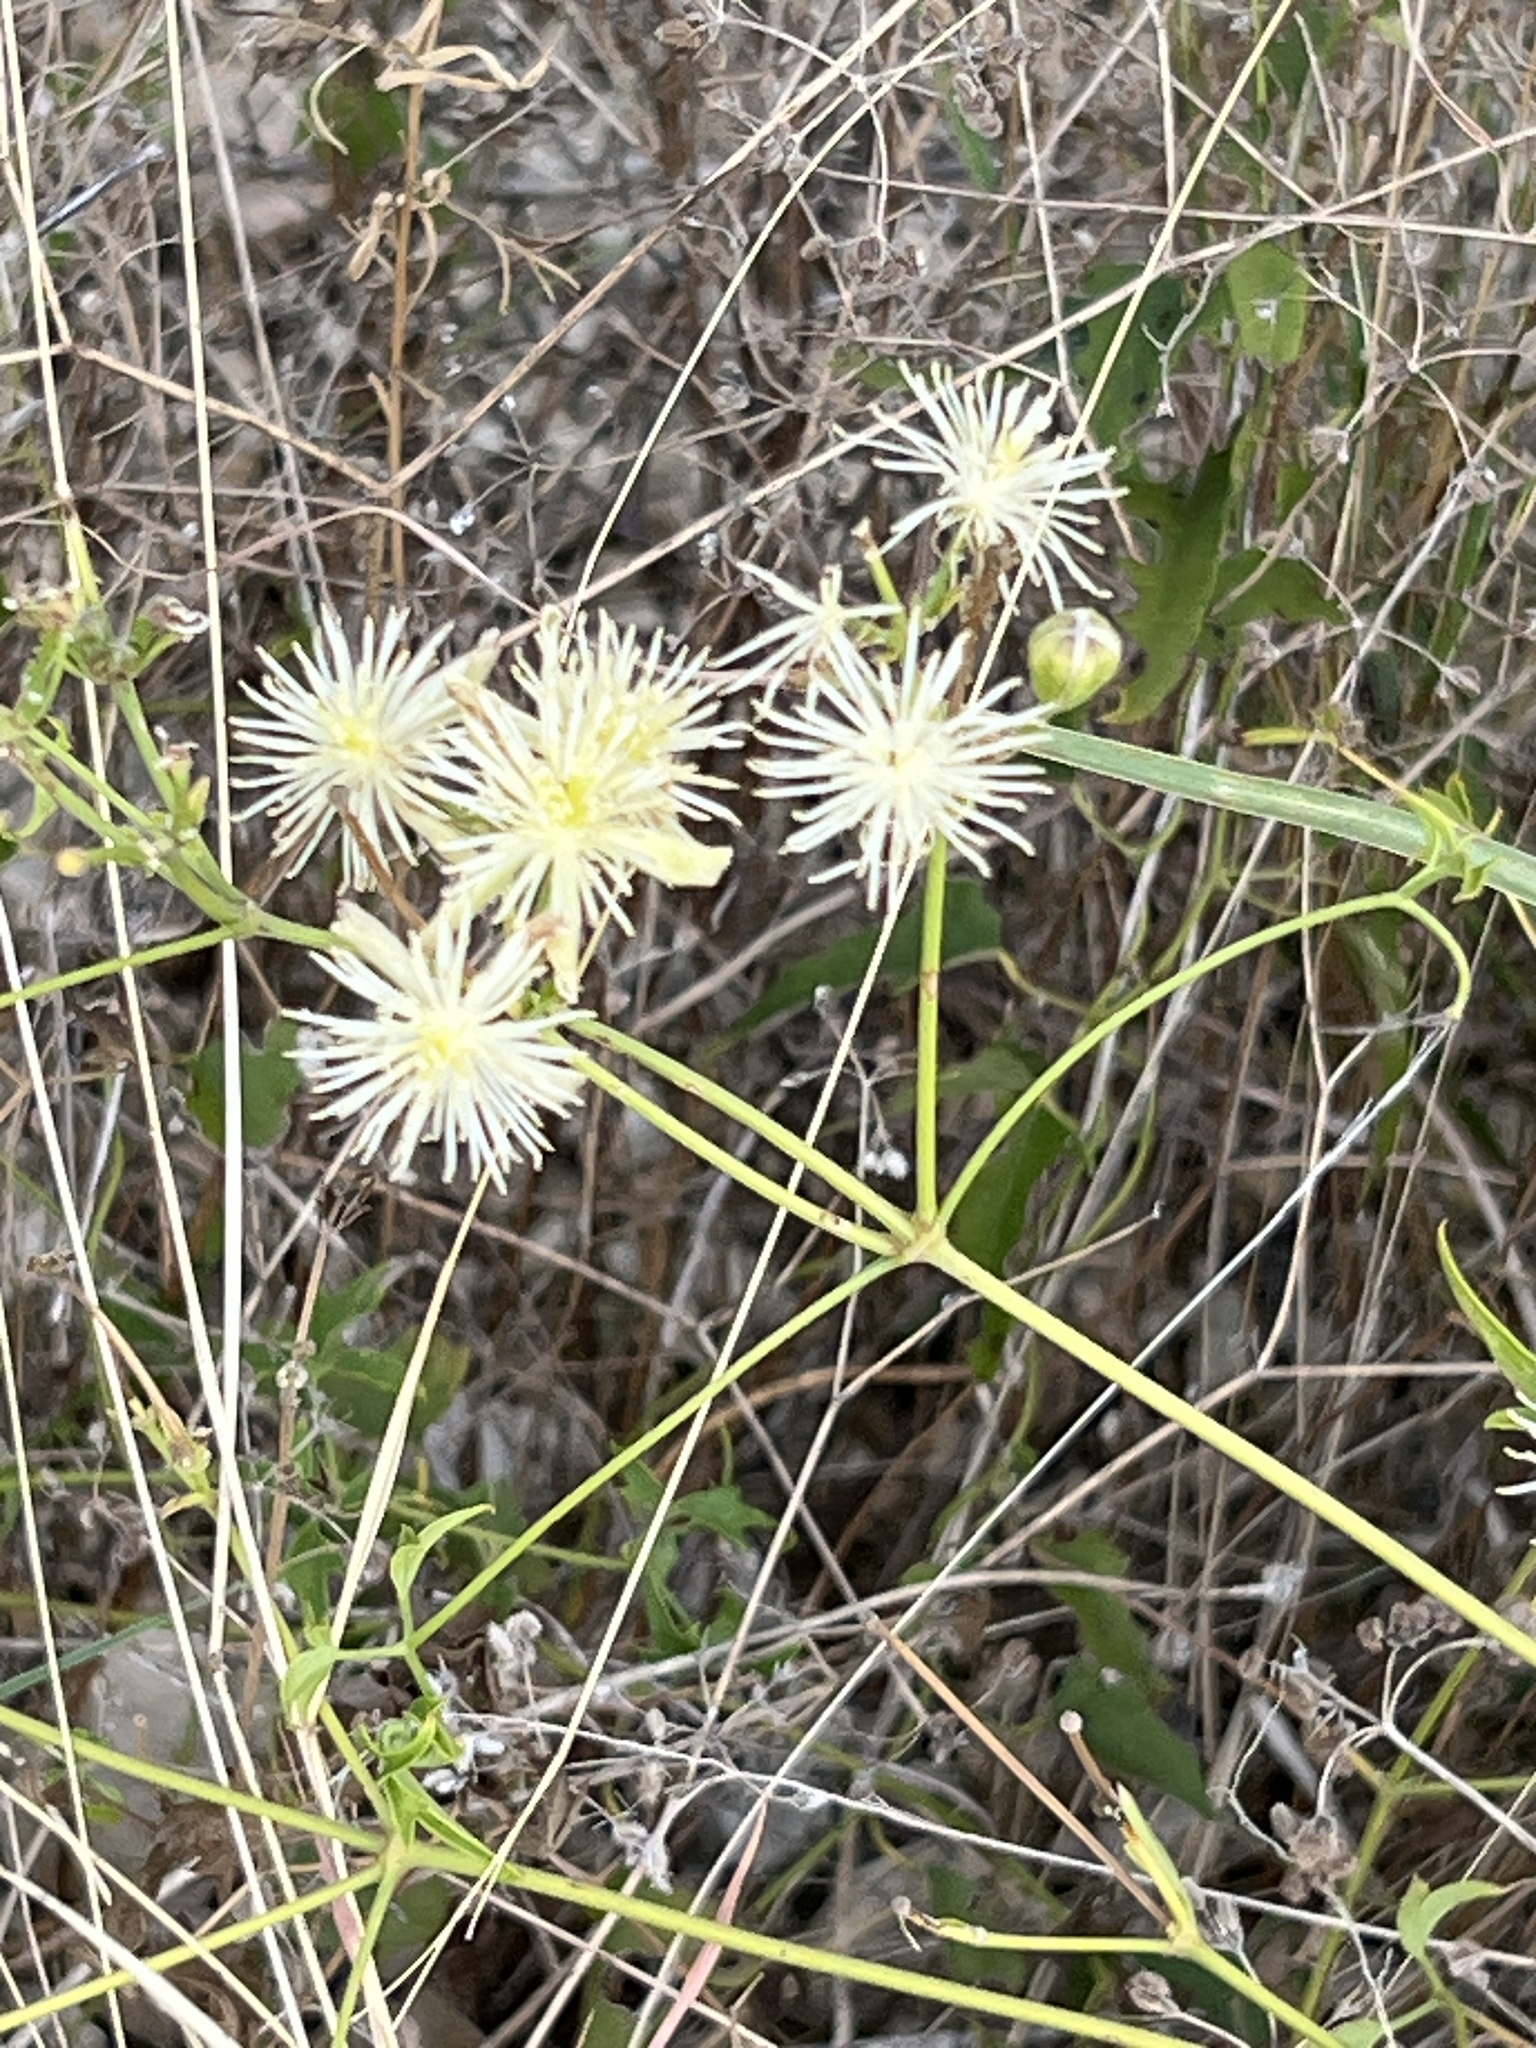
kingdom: Plantae
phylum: Tracheophyta
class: Magnoliopsida
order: Ranunculales
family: Ranunculaceae
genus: Clematis
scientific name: Clematis drummondii
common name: Texas virgin's bower
